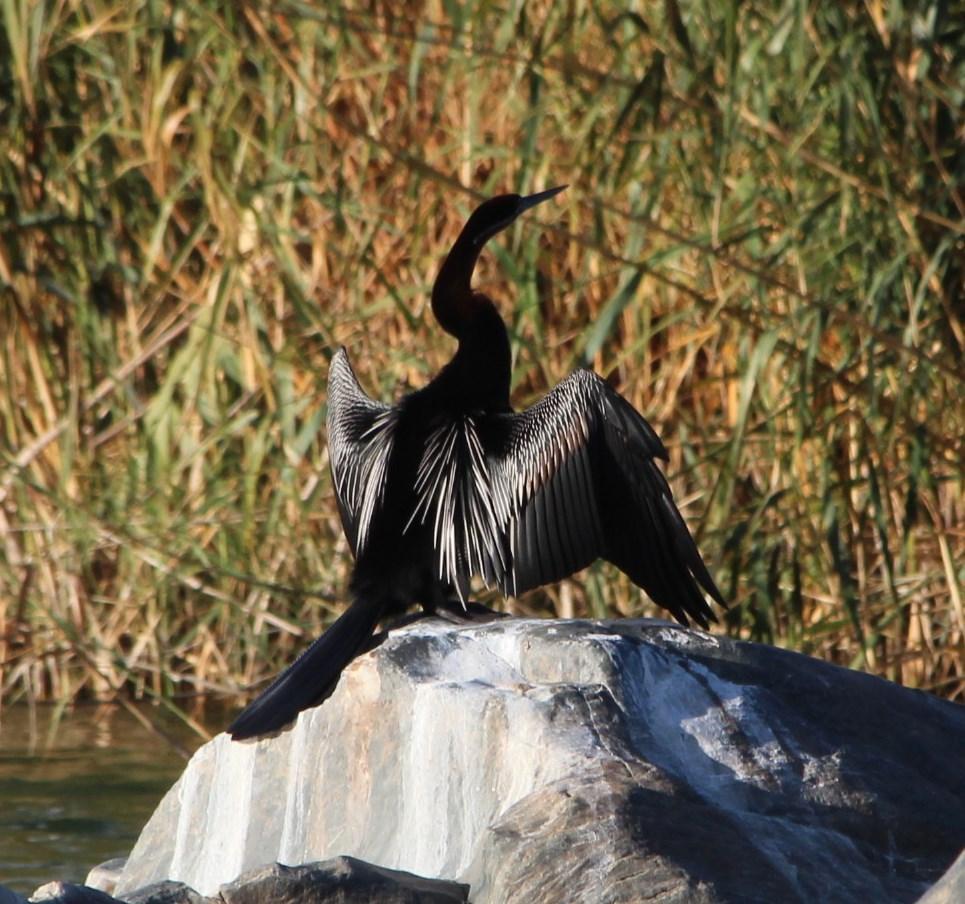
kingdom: Animalia
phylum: Chordata
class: Aves
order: Suliformes
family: Anhingidae
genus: Anhinga
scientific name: Anhinga rufa
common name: African darter
